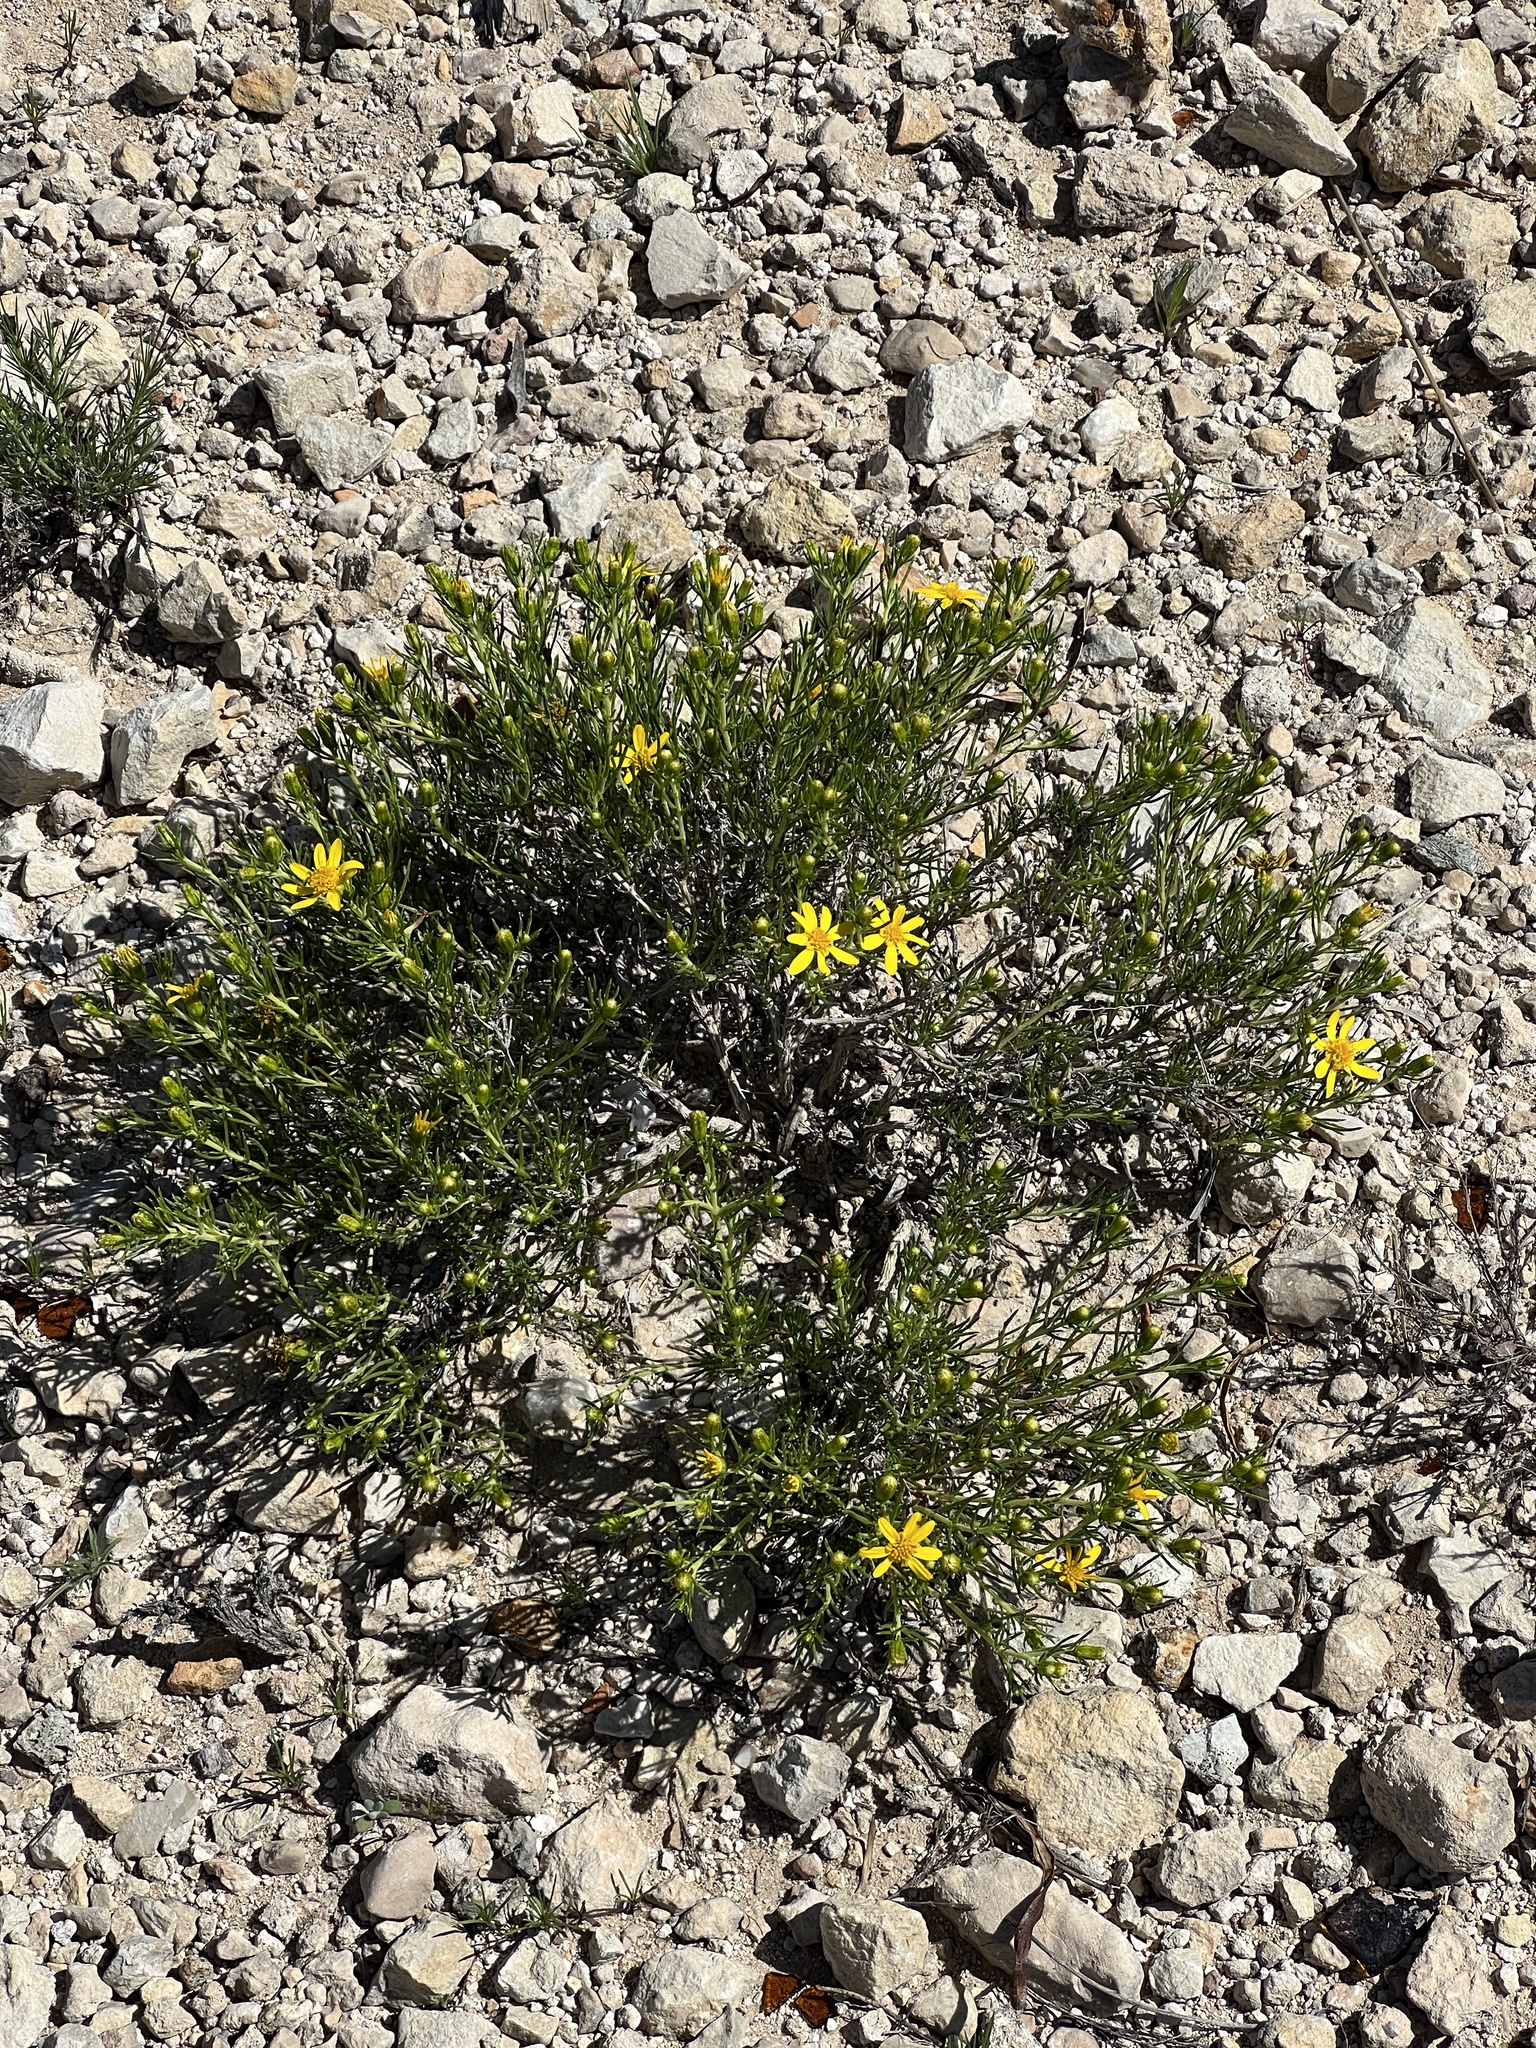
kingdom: Plantae
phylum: Tracheophyta
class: Magnoliopsida
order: Asterales
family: Asteraceae
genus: Thymophylla
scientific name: Thymophylla acerosa
